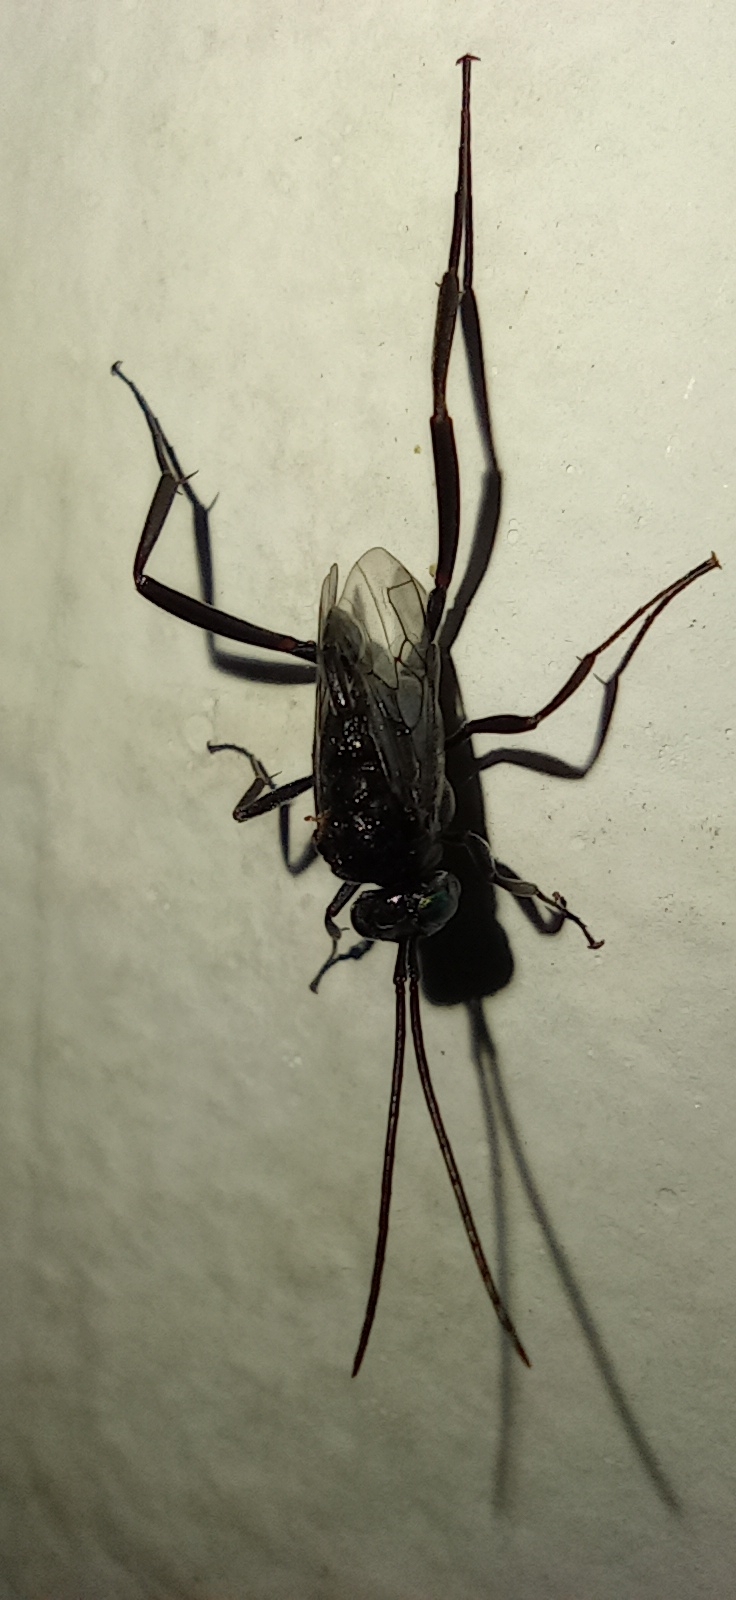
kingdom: Animalia
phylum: Arthropoda
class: Insecta
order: Hymenoptera
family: Evaniidae
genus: Evania
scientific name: Evania appendigaster
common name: Ensign wasp
